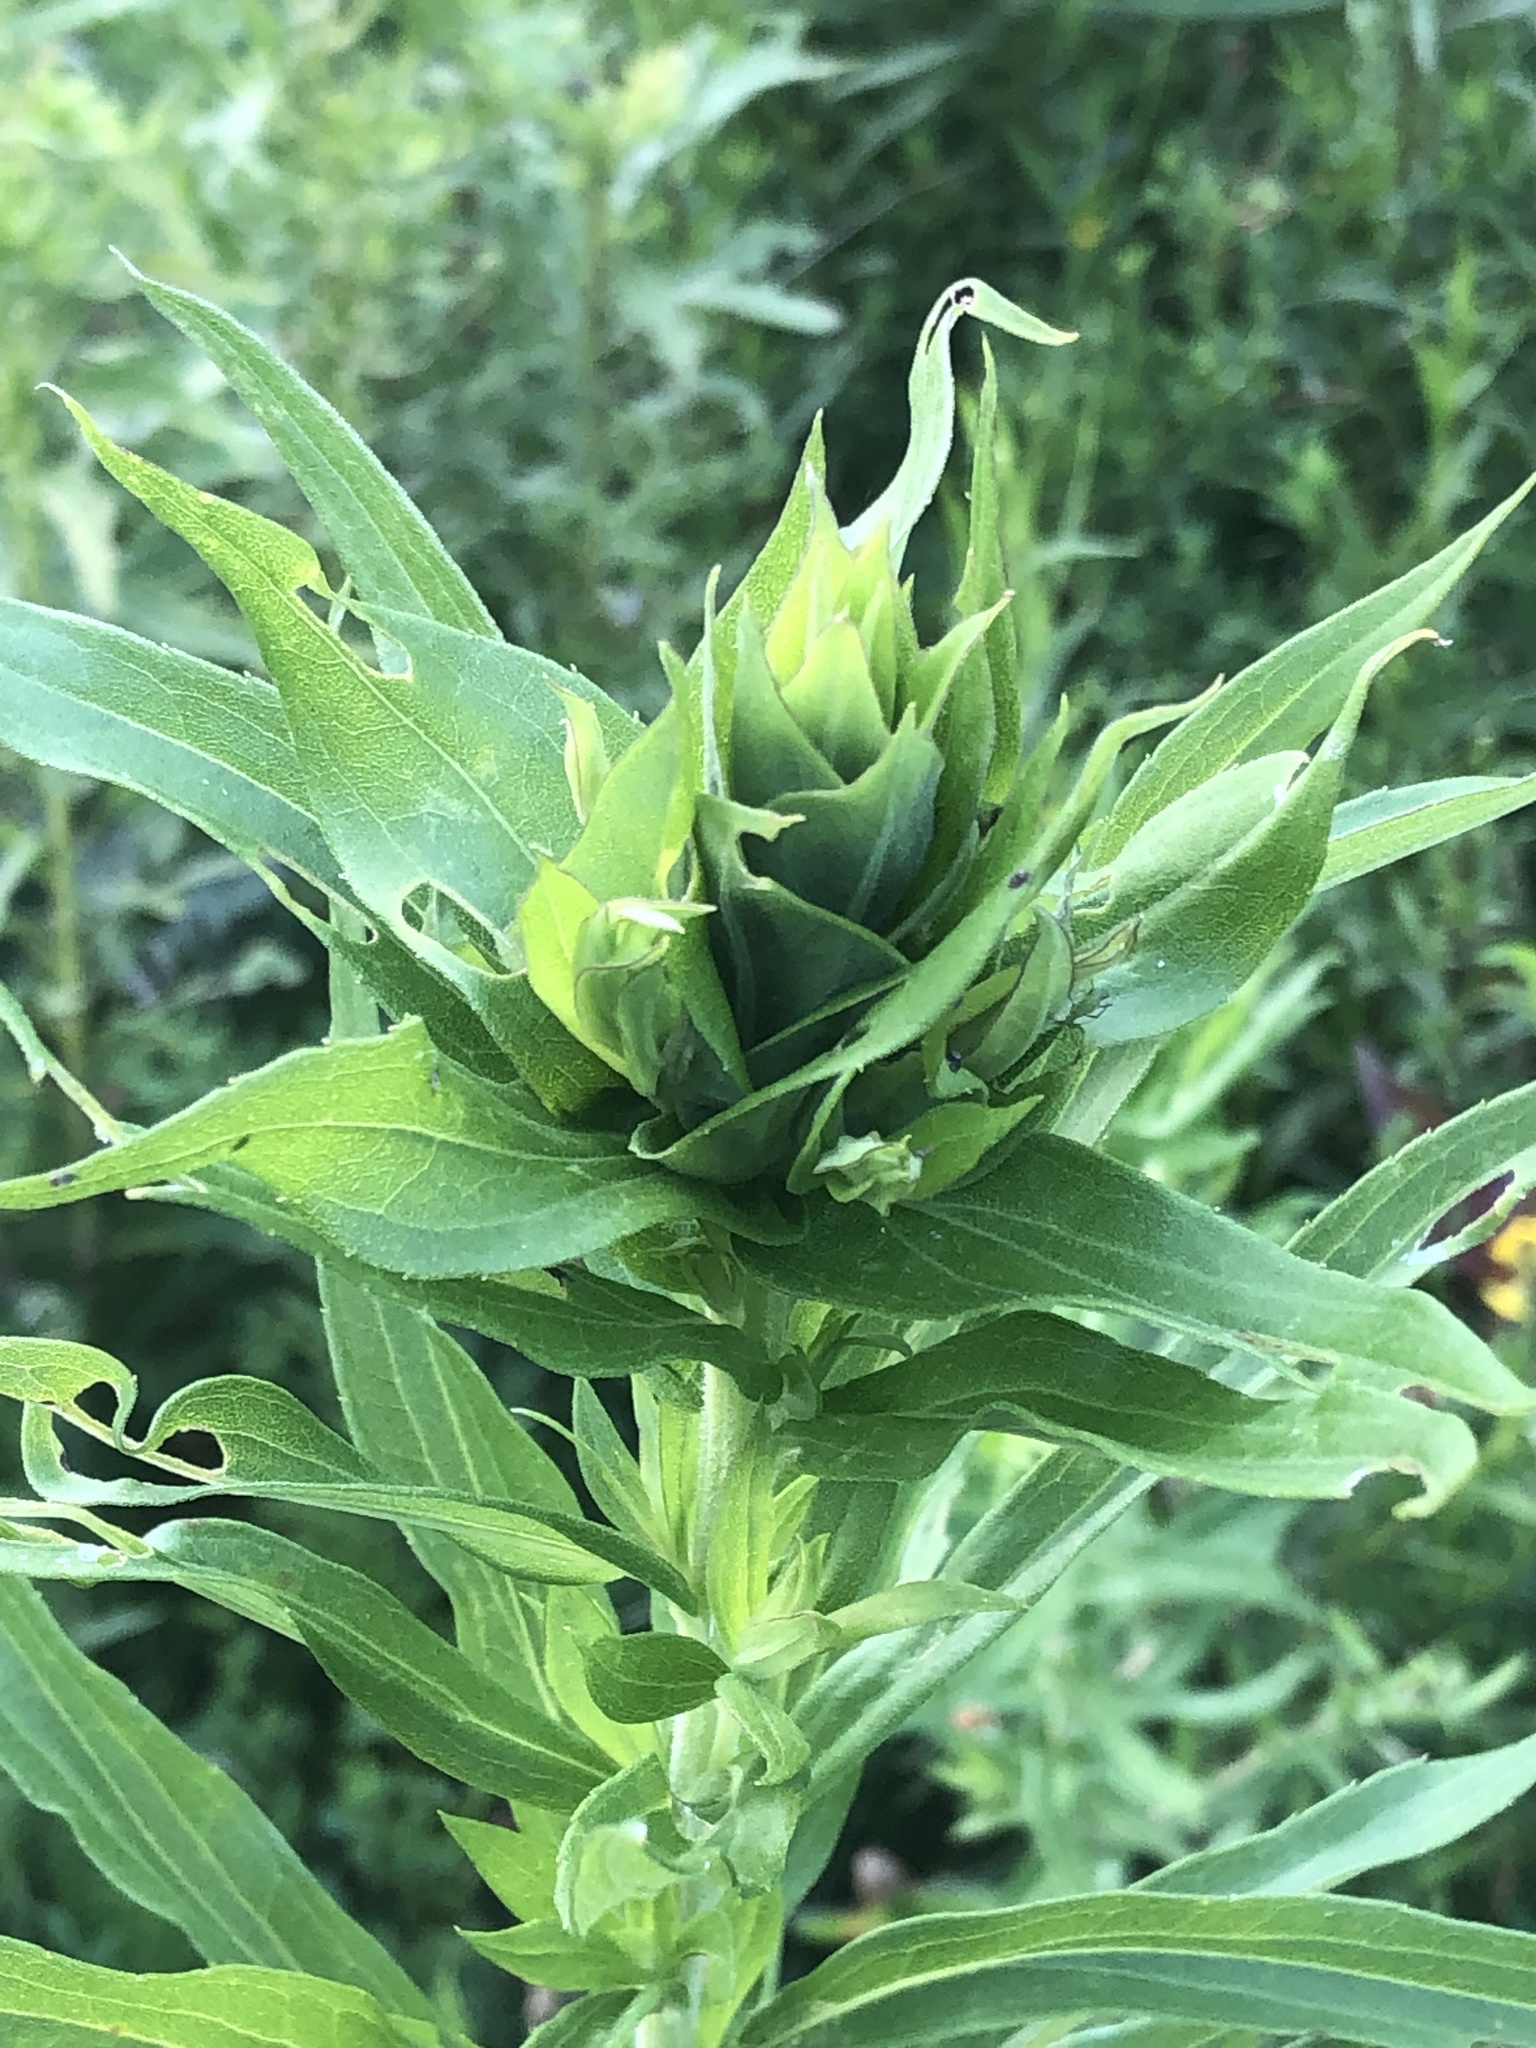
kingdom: Animalia
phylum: Arthropoda
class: Insecta
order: Diptera
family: Cecidomyiidae
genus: Rhopalomyia
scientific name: Rhopalomyia solidaginis
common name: Goldenrod bunch gall midge
